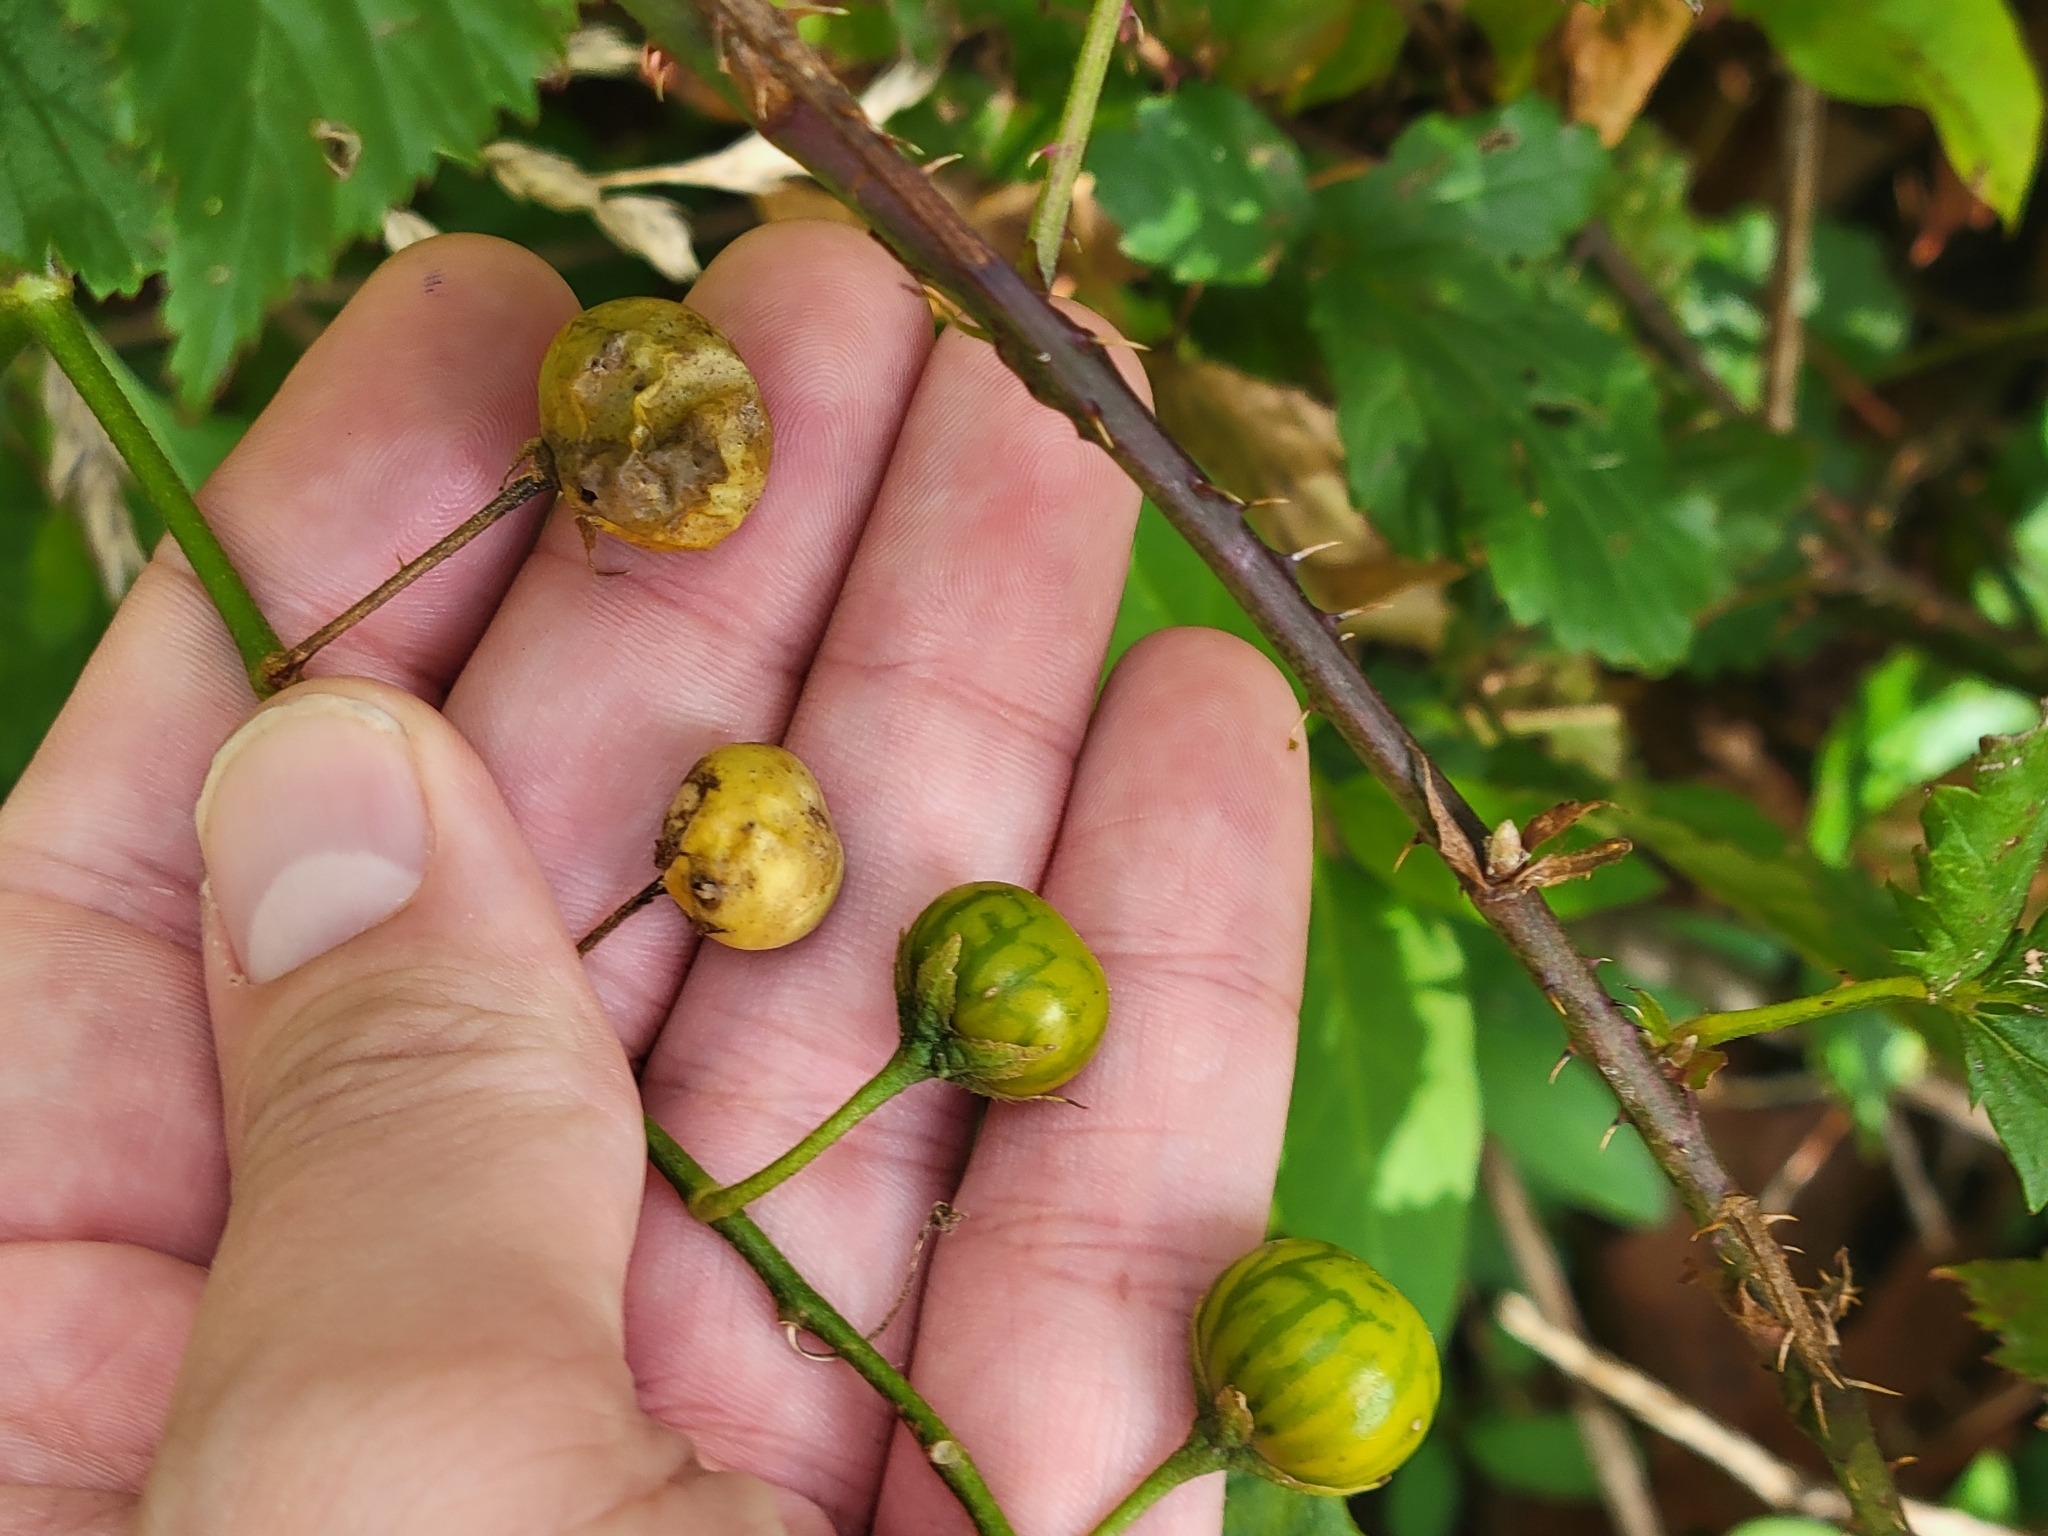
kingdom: Plantae
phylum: Tracheophyta
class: Magnoliopsida
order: Solanales
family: Solanaceae
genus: Solanum
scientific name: Solanum carolinense
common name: Horse-nettle
